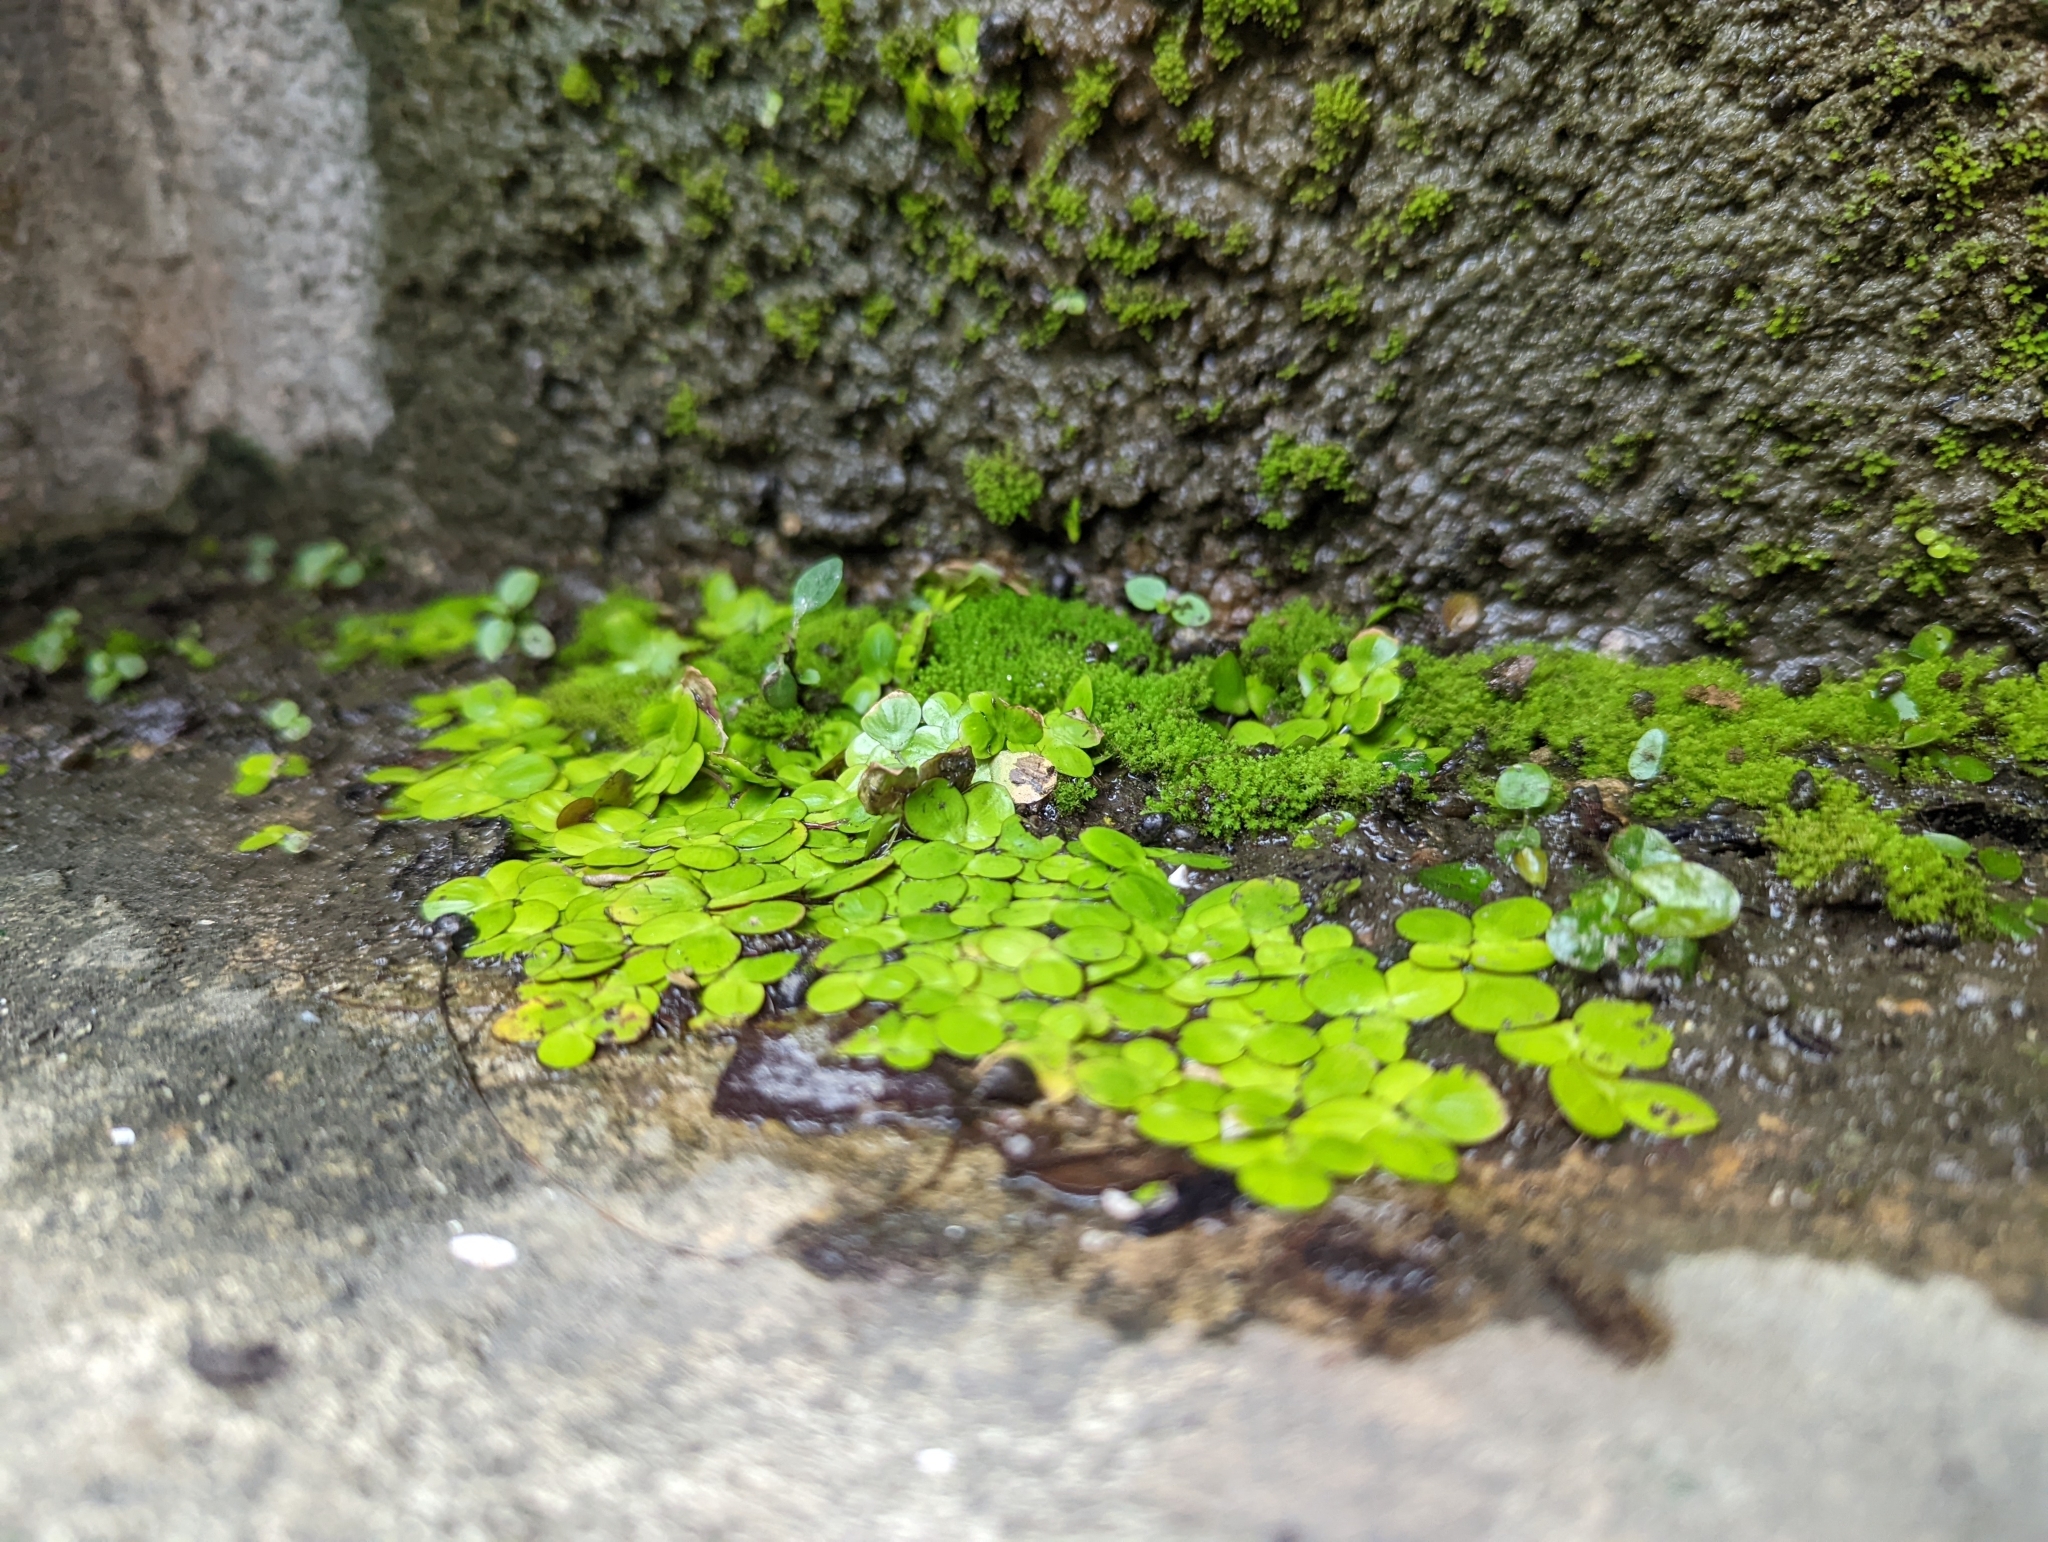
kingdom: Plantae
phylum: Tracheophyta
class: Liliopsida
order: Alismatales
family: Araceae
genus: Spirodela
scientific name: Spirodela polyrhiza
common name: Great duckweed
